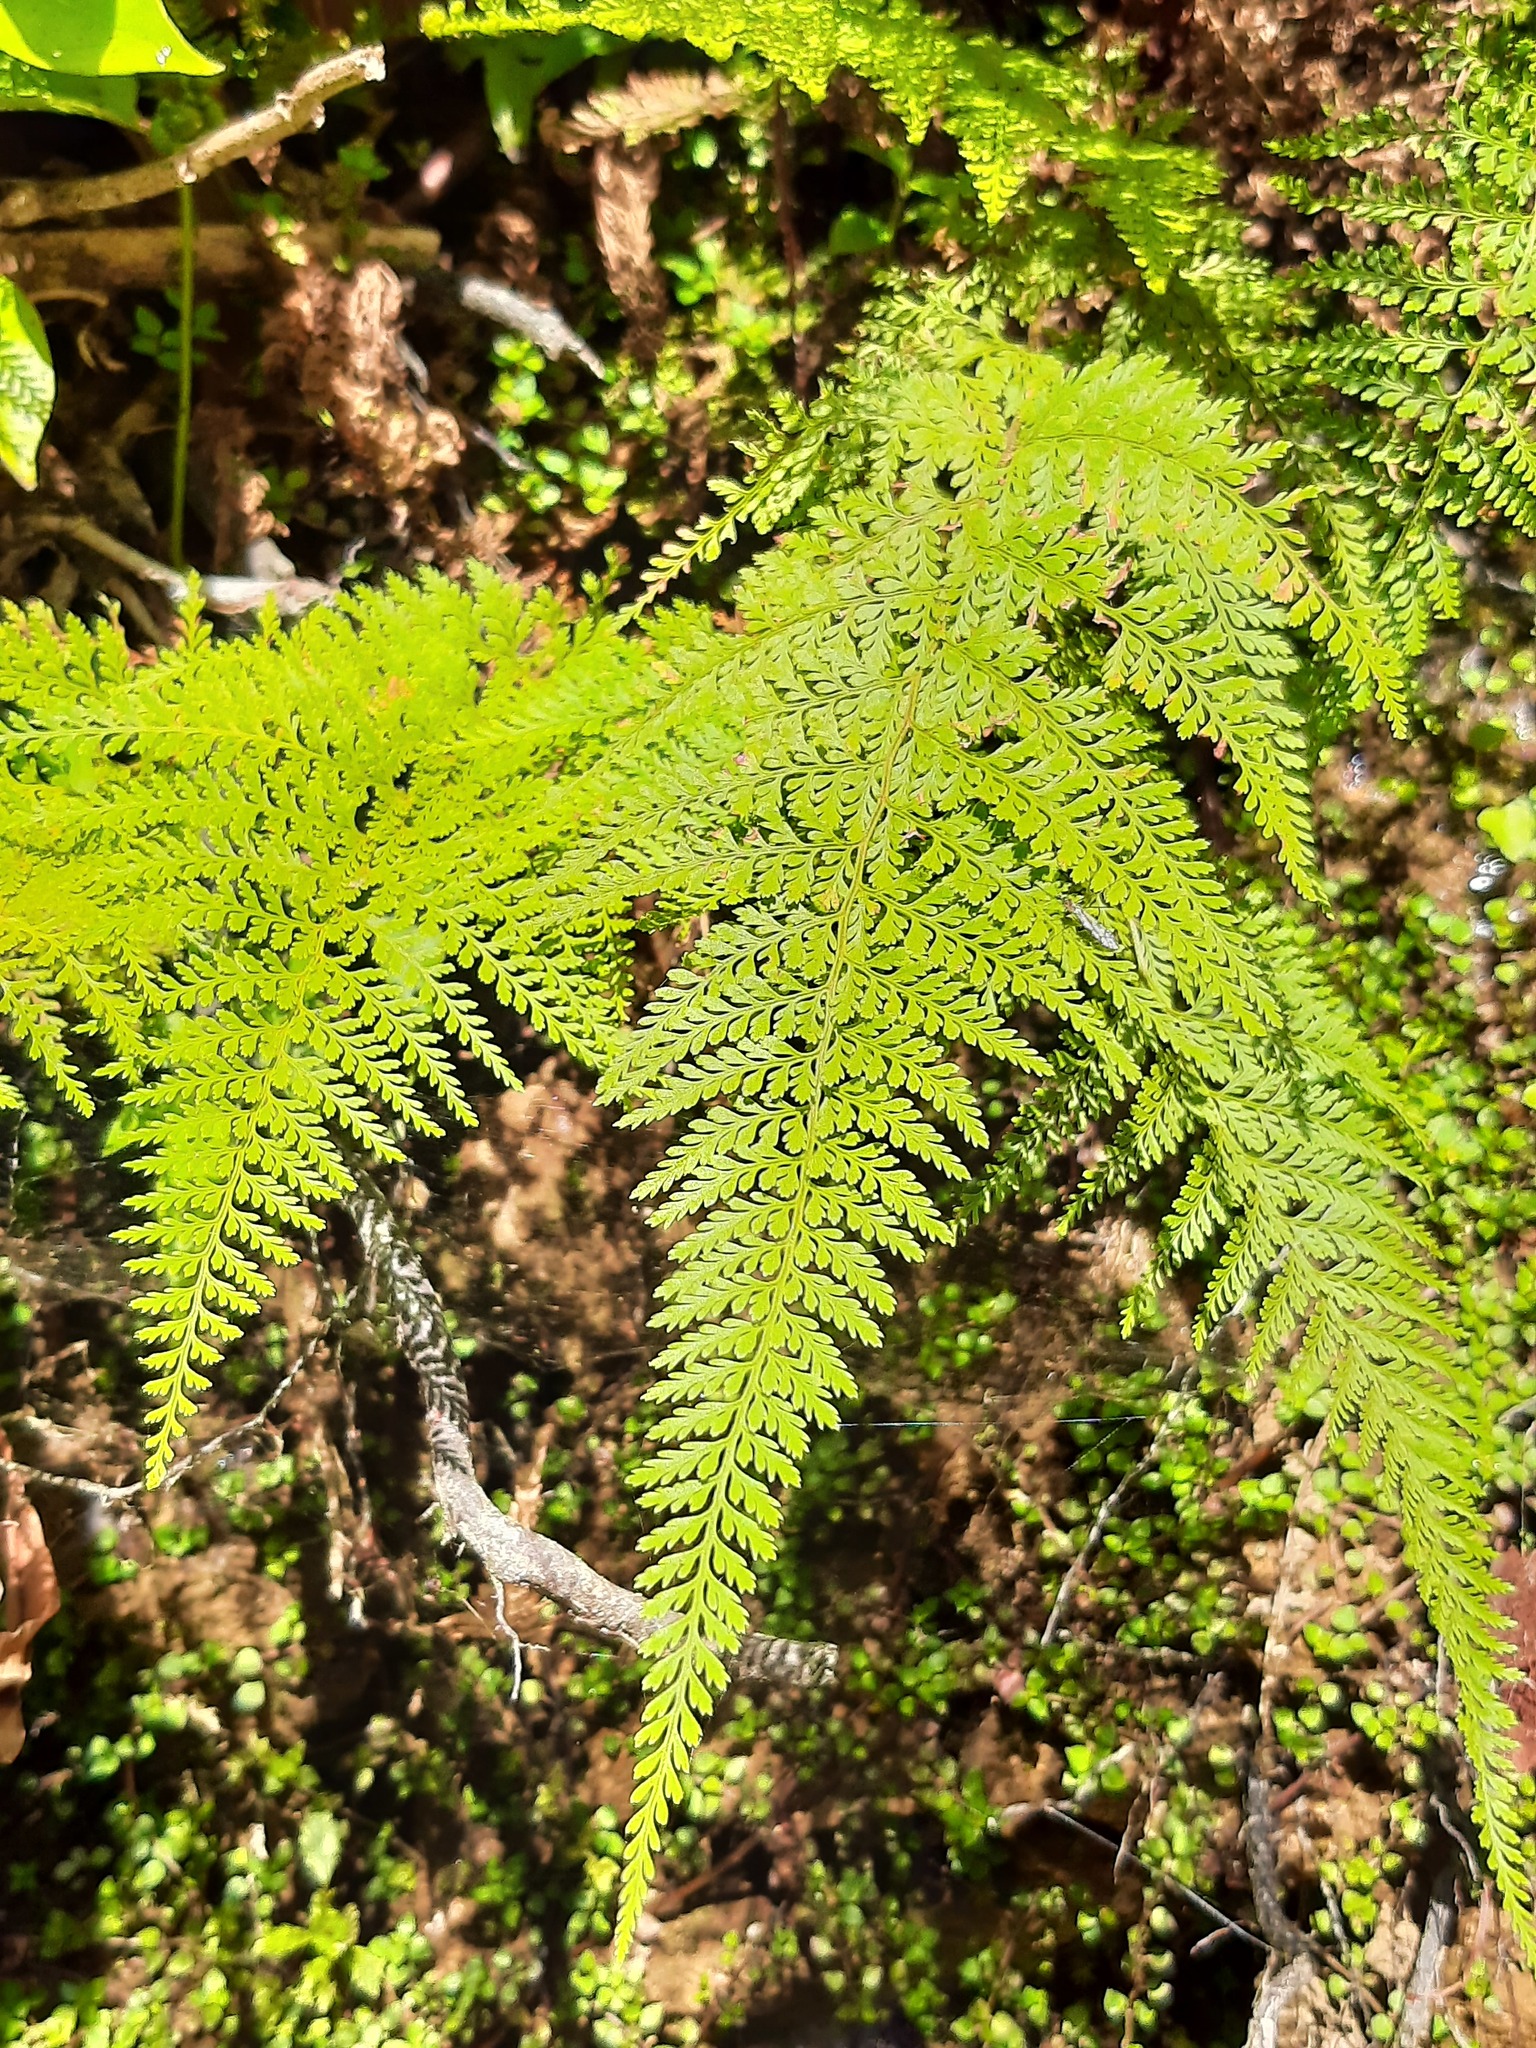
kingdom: Plantae
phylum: Tracheophyta
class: Polypodiopsida
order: Polypodiales
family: Dennstaedtiaceae
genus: Paesia
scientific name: Paesia scaberula
